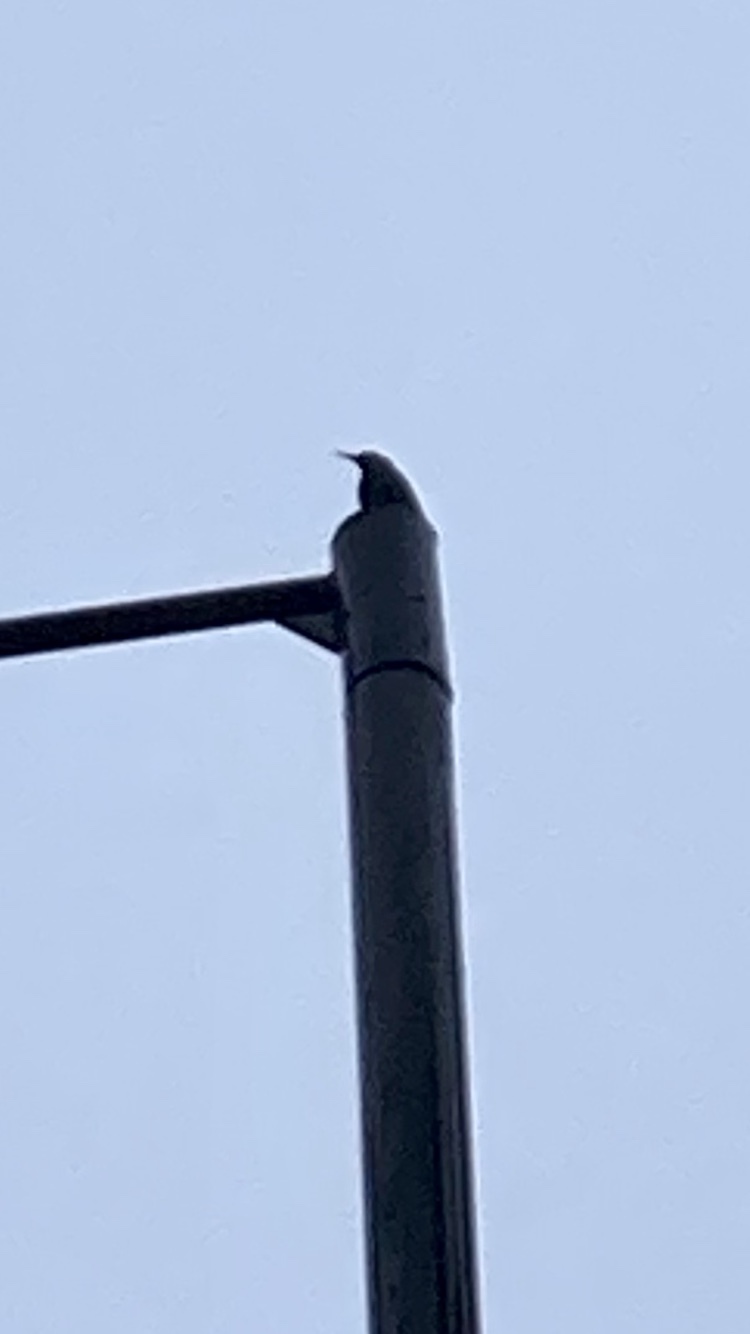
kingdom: Animalia
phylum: Chordata
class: Aves
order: Passeriformes
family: Sturnidae
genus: Sturnus
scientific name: Sturnus vulgaris
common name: Common starling
